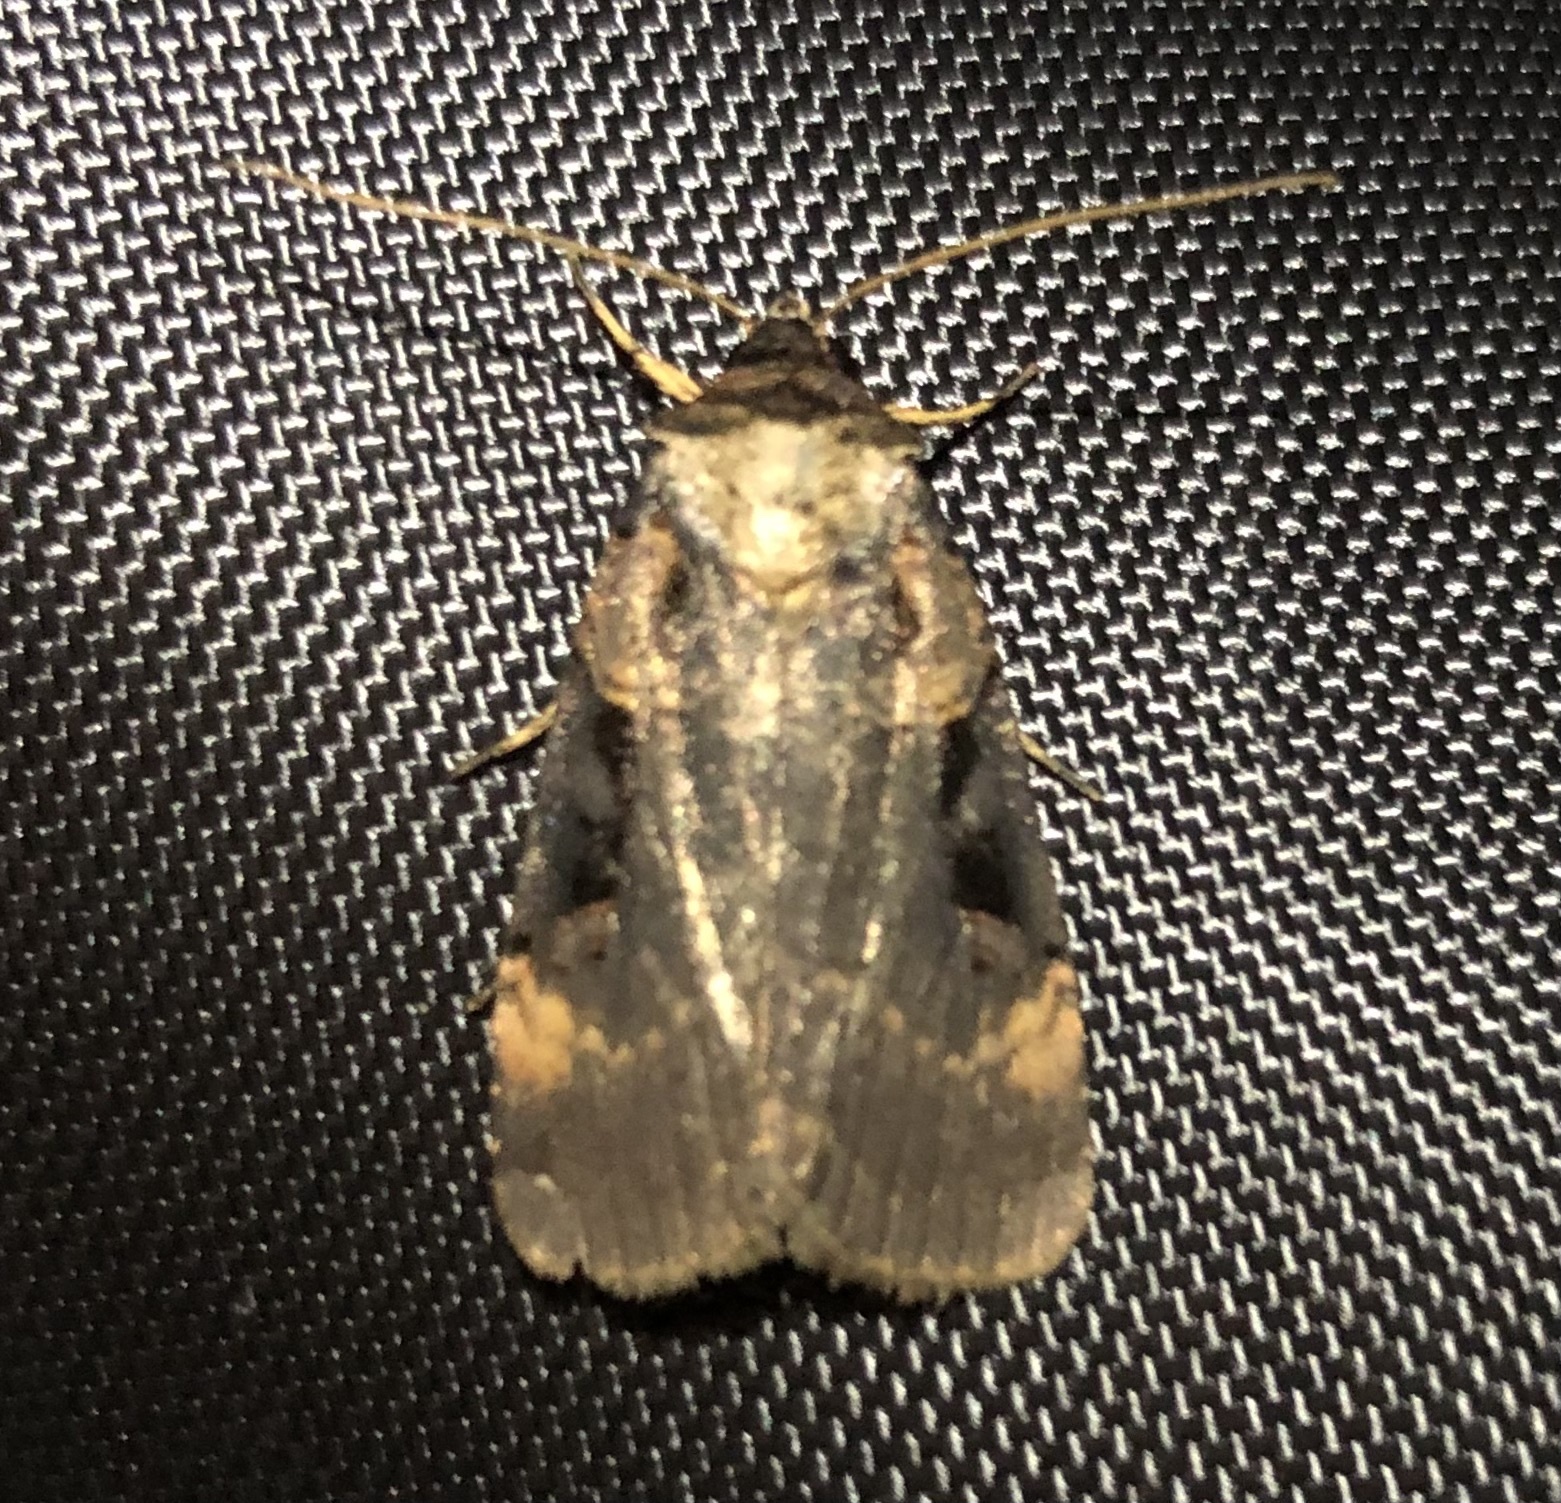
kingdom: Animalia
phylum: Arthropoda
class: Insecta
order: Lepidoptera
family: Noctuidae
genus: Pseudohermonassa
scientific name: Pseudohermonassa bicarnea
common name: Pink spotted dart
